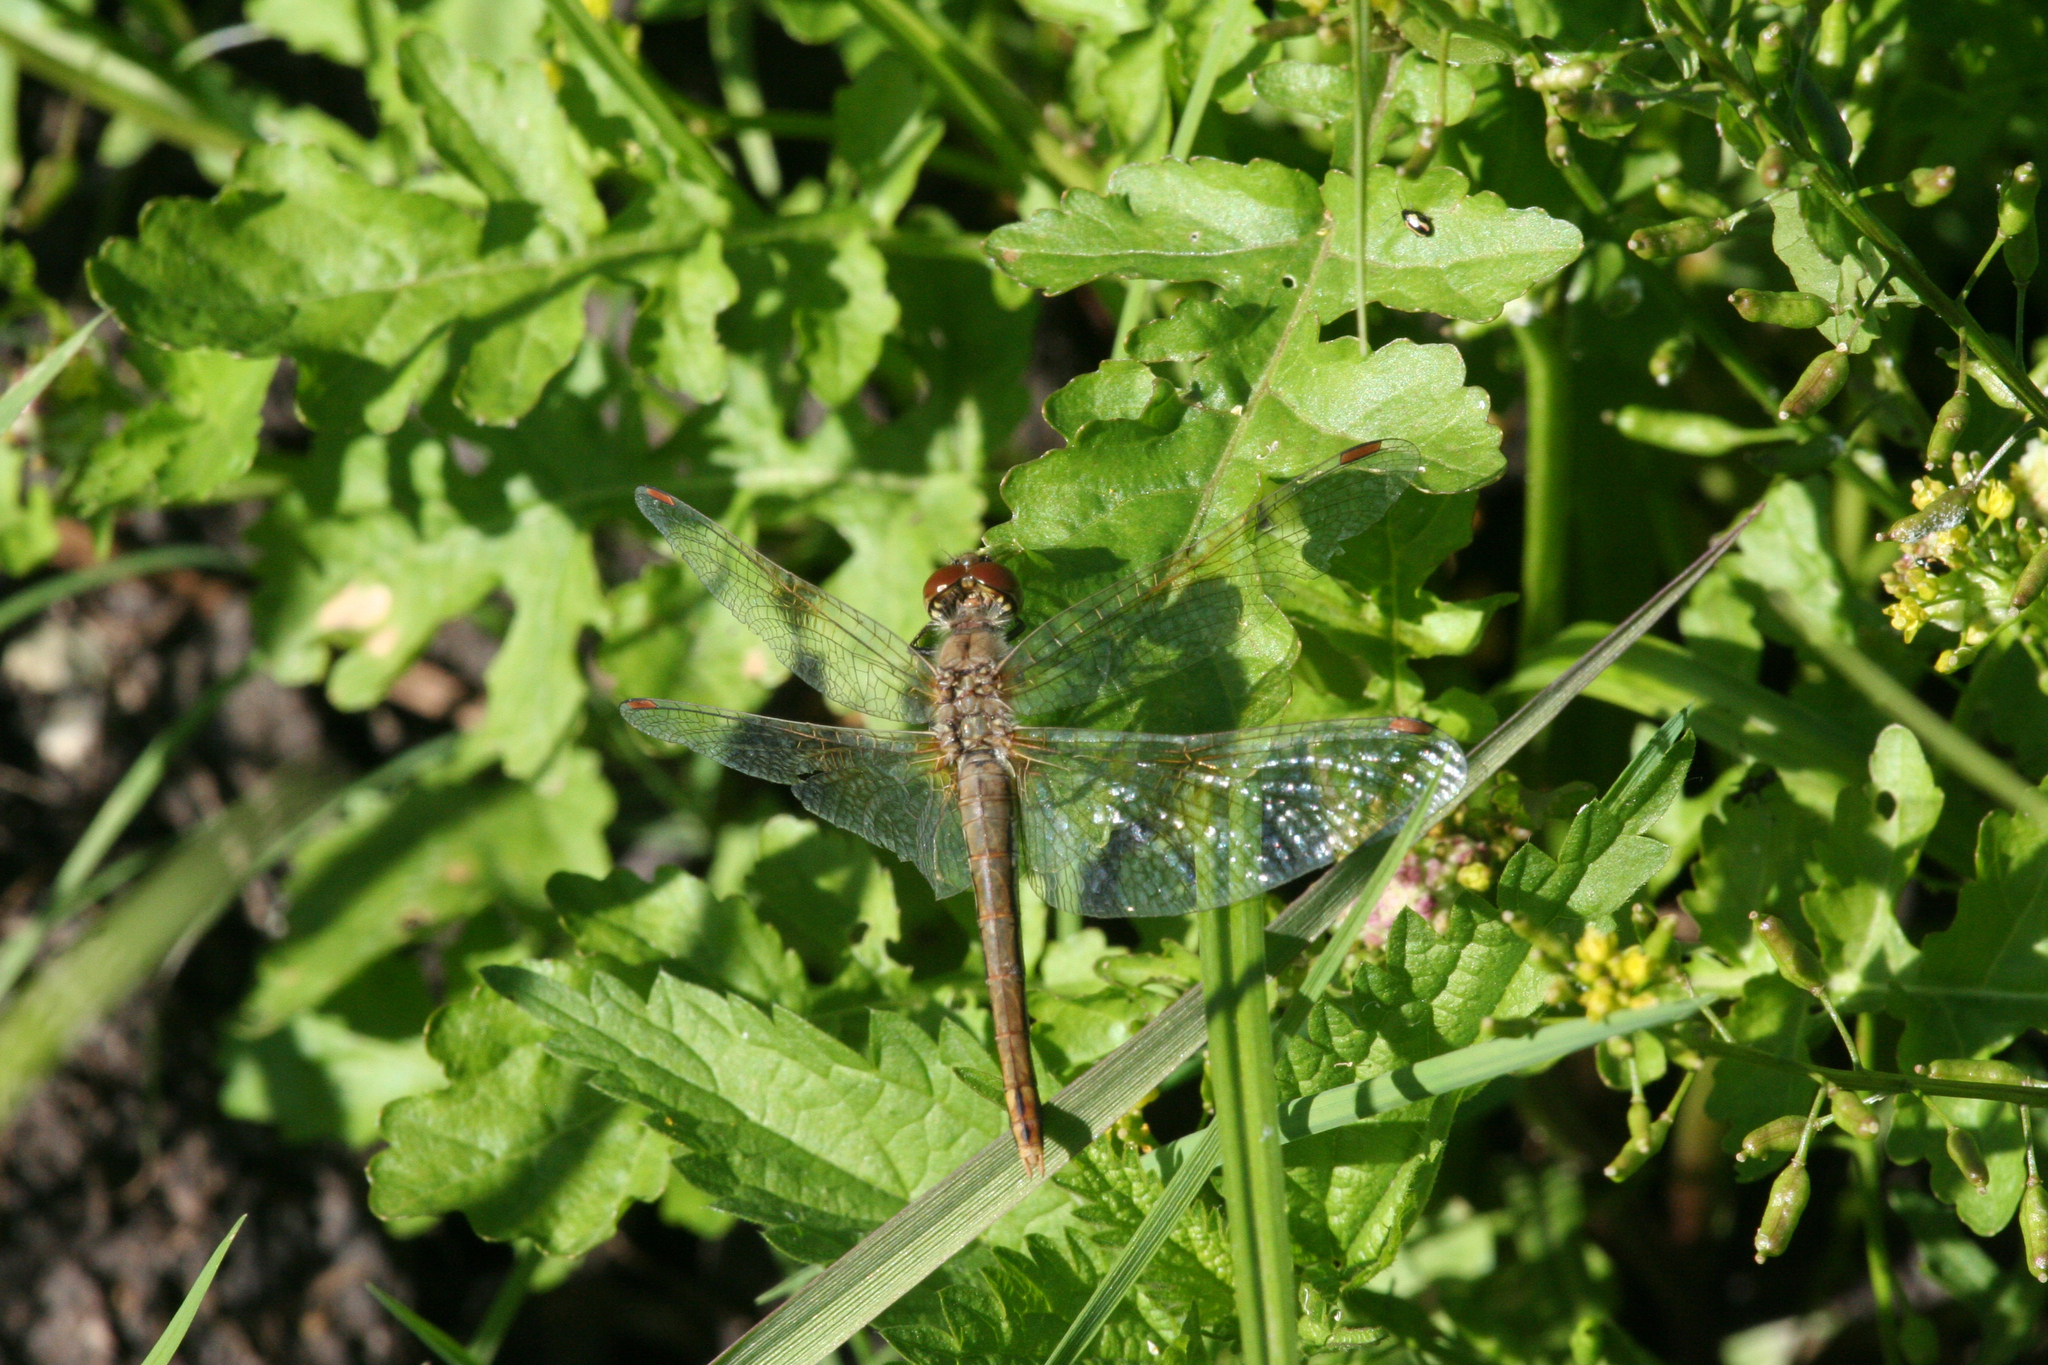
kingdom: Plantae
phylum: Tracheophyta
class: Magnoliopsida
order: Brassicales
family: Brassicaceae
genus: Rorippa
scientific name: Rorippa palustris
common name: Marsh yellow-cress
